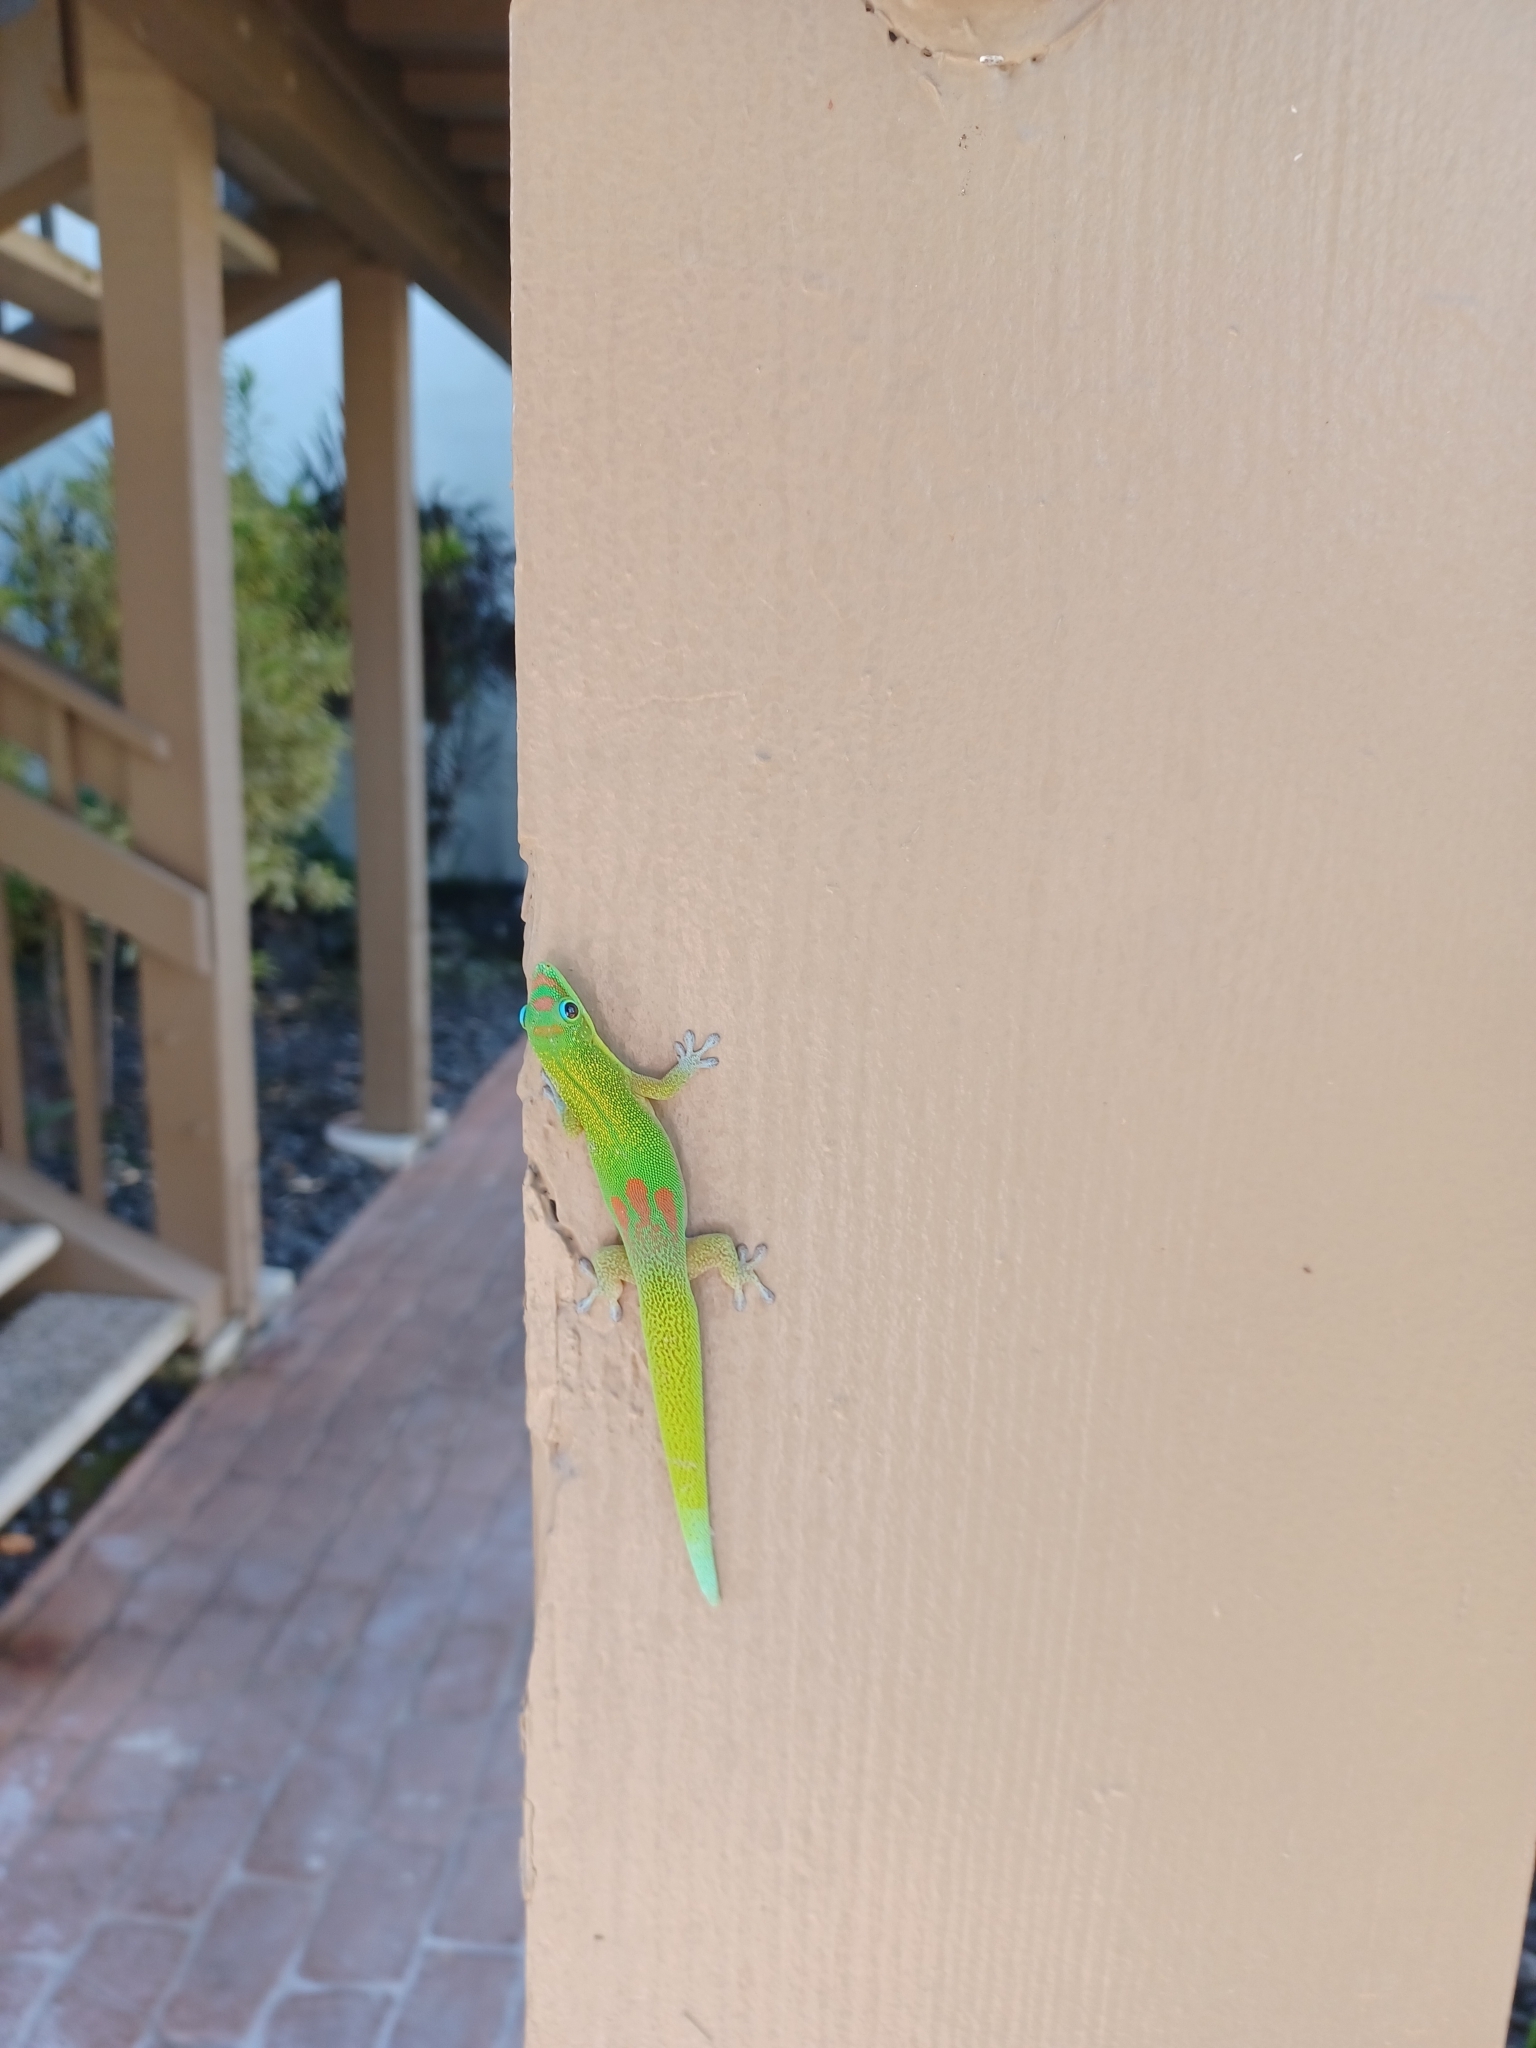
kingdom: Animalia
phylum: Chordata
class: Squamata
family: Gekkonidae
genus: Phelsuma
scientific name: Phelsuma laticauda
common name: Gold dust day gecko
